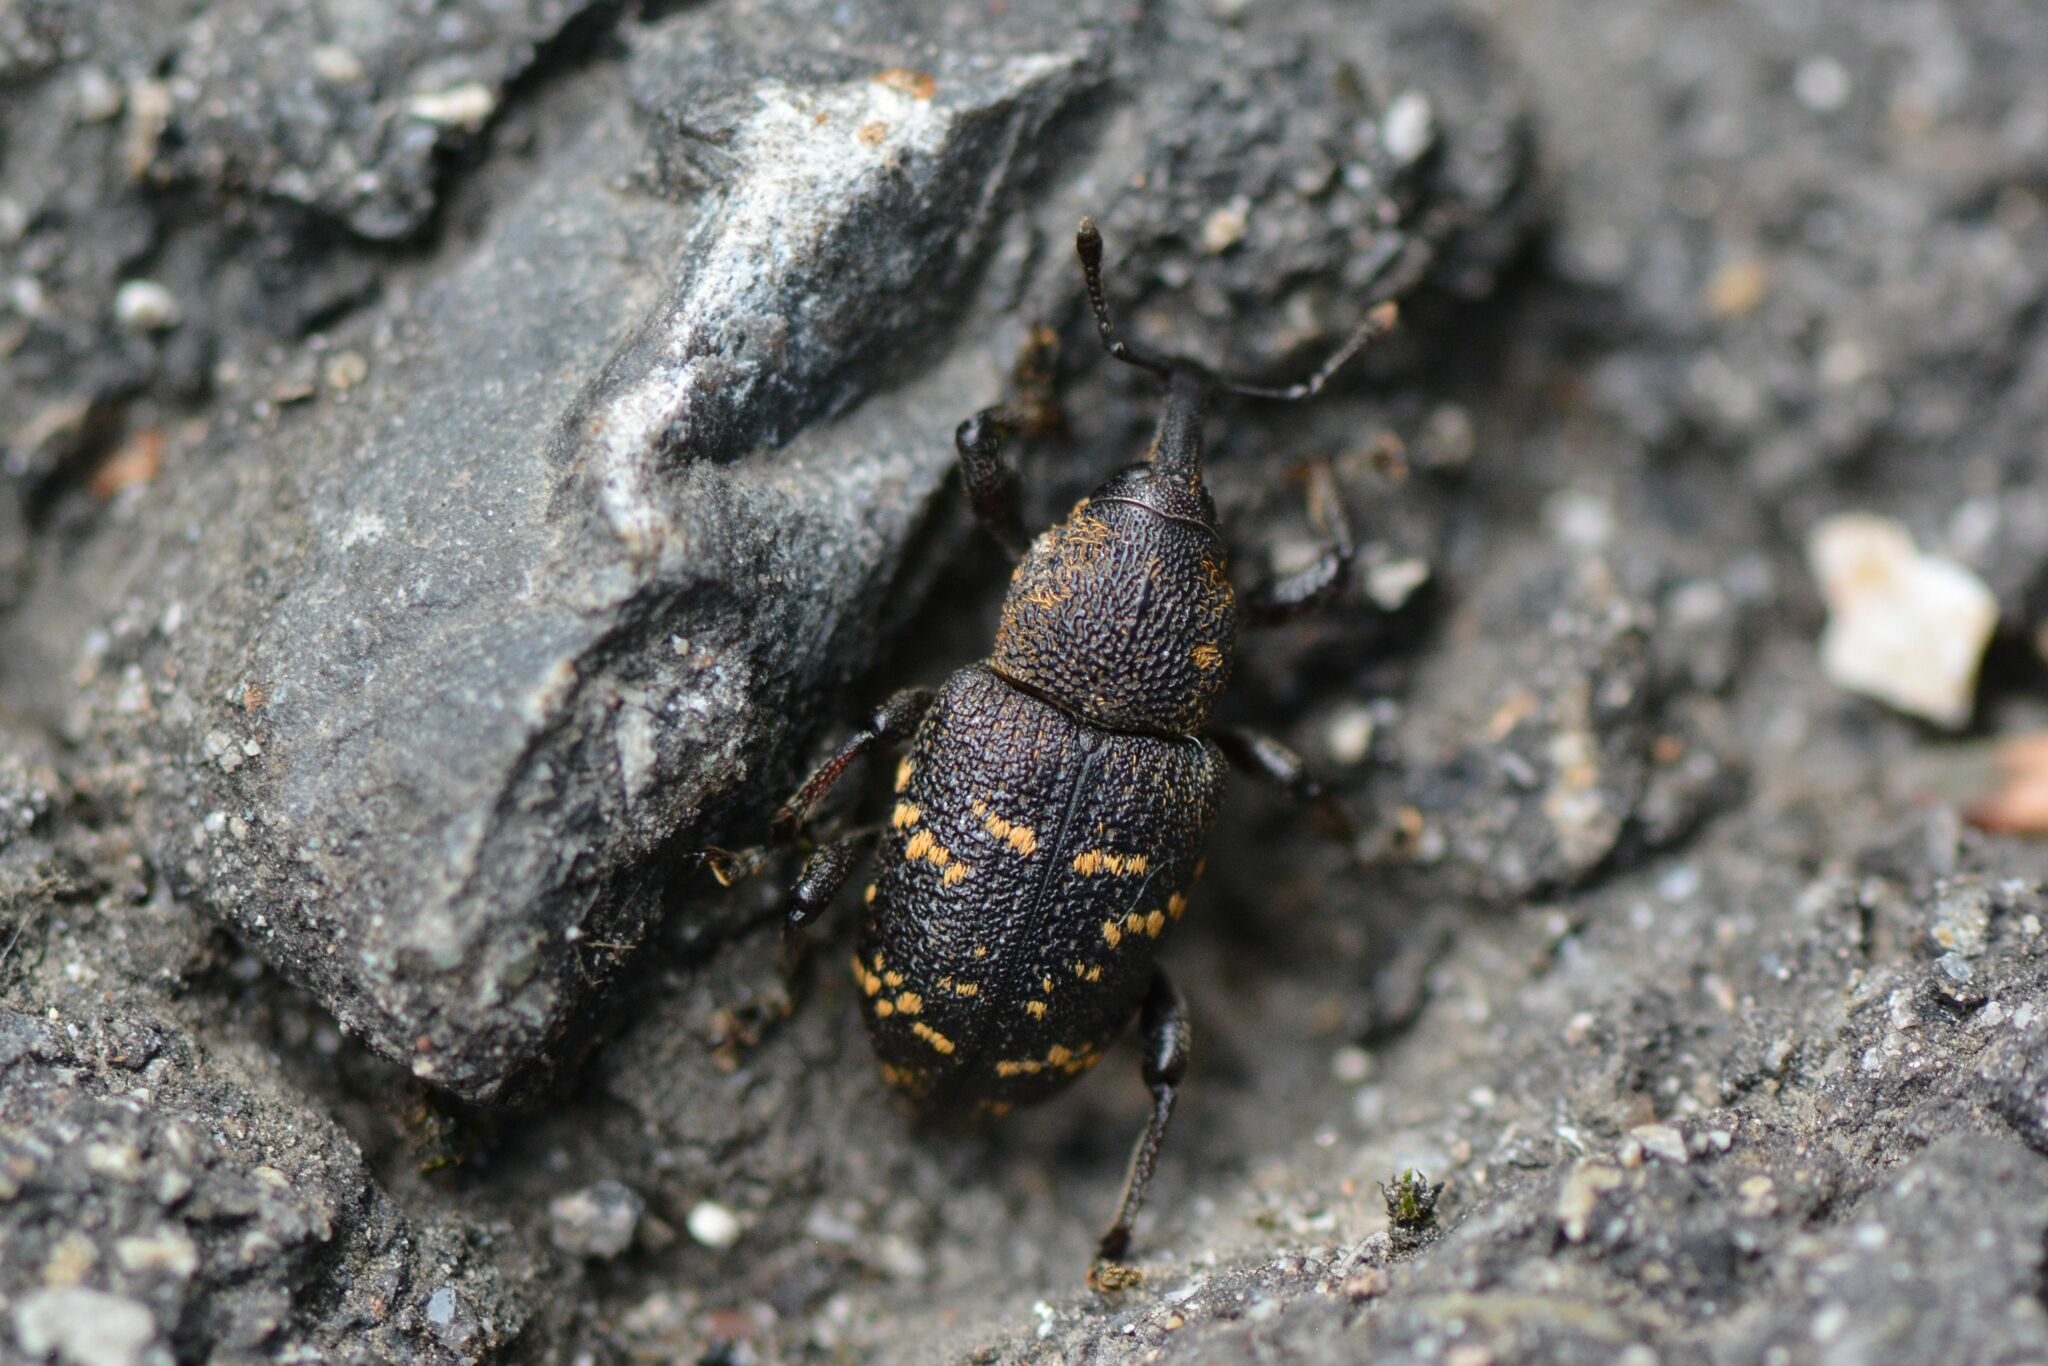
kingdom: Animalia
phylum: Arthropoda
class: Insecta
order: Coleoptera
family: Curculionidae
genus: Hylobius
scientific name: Hylobius abietis
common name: Large pine weevil
